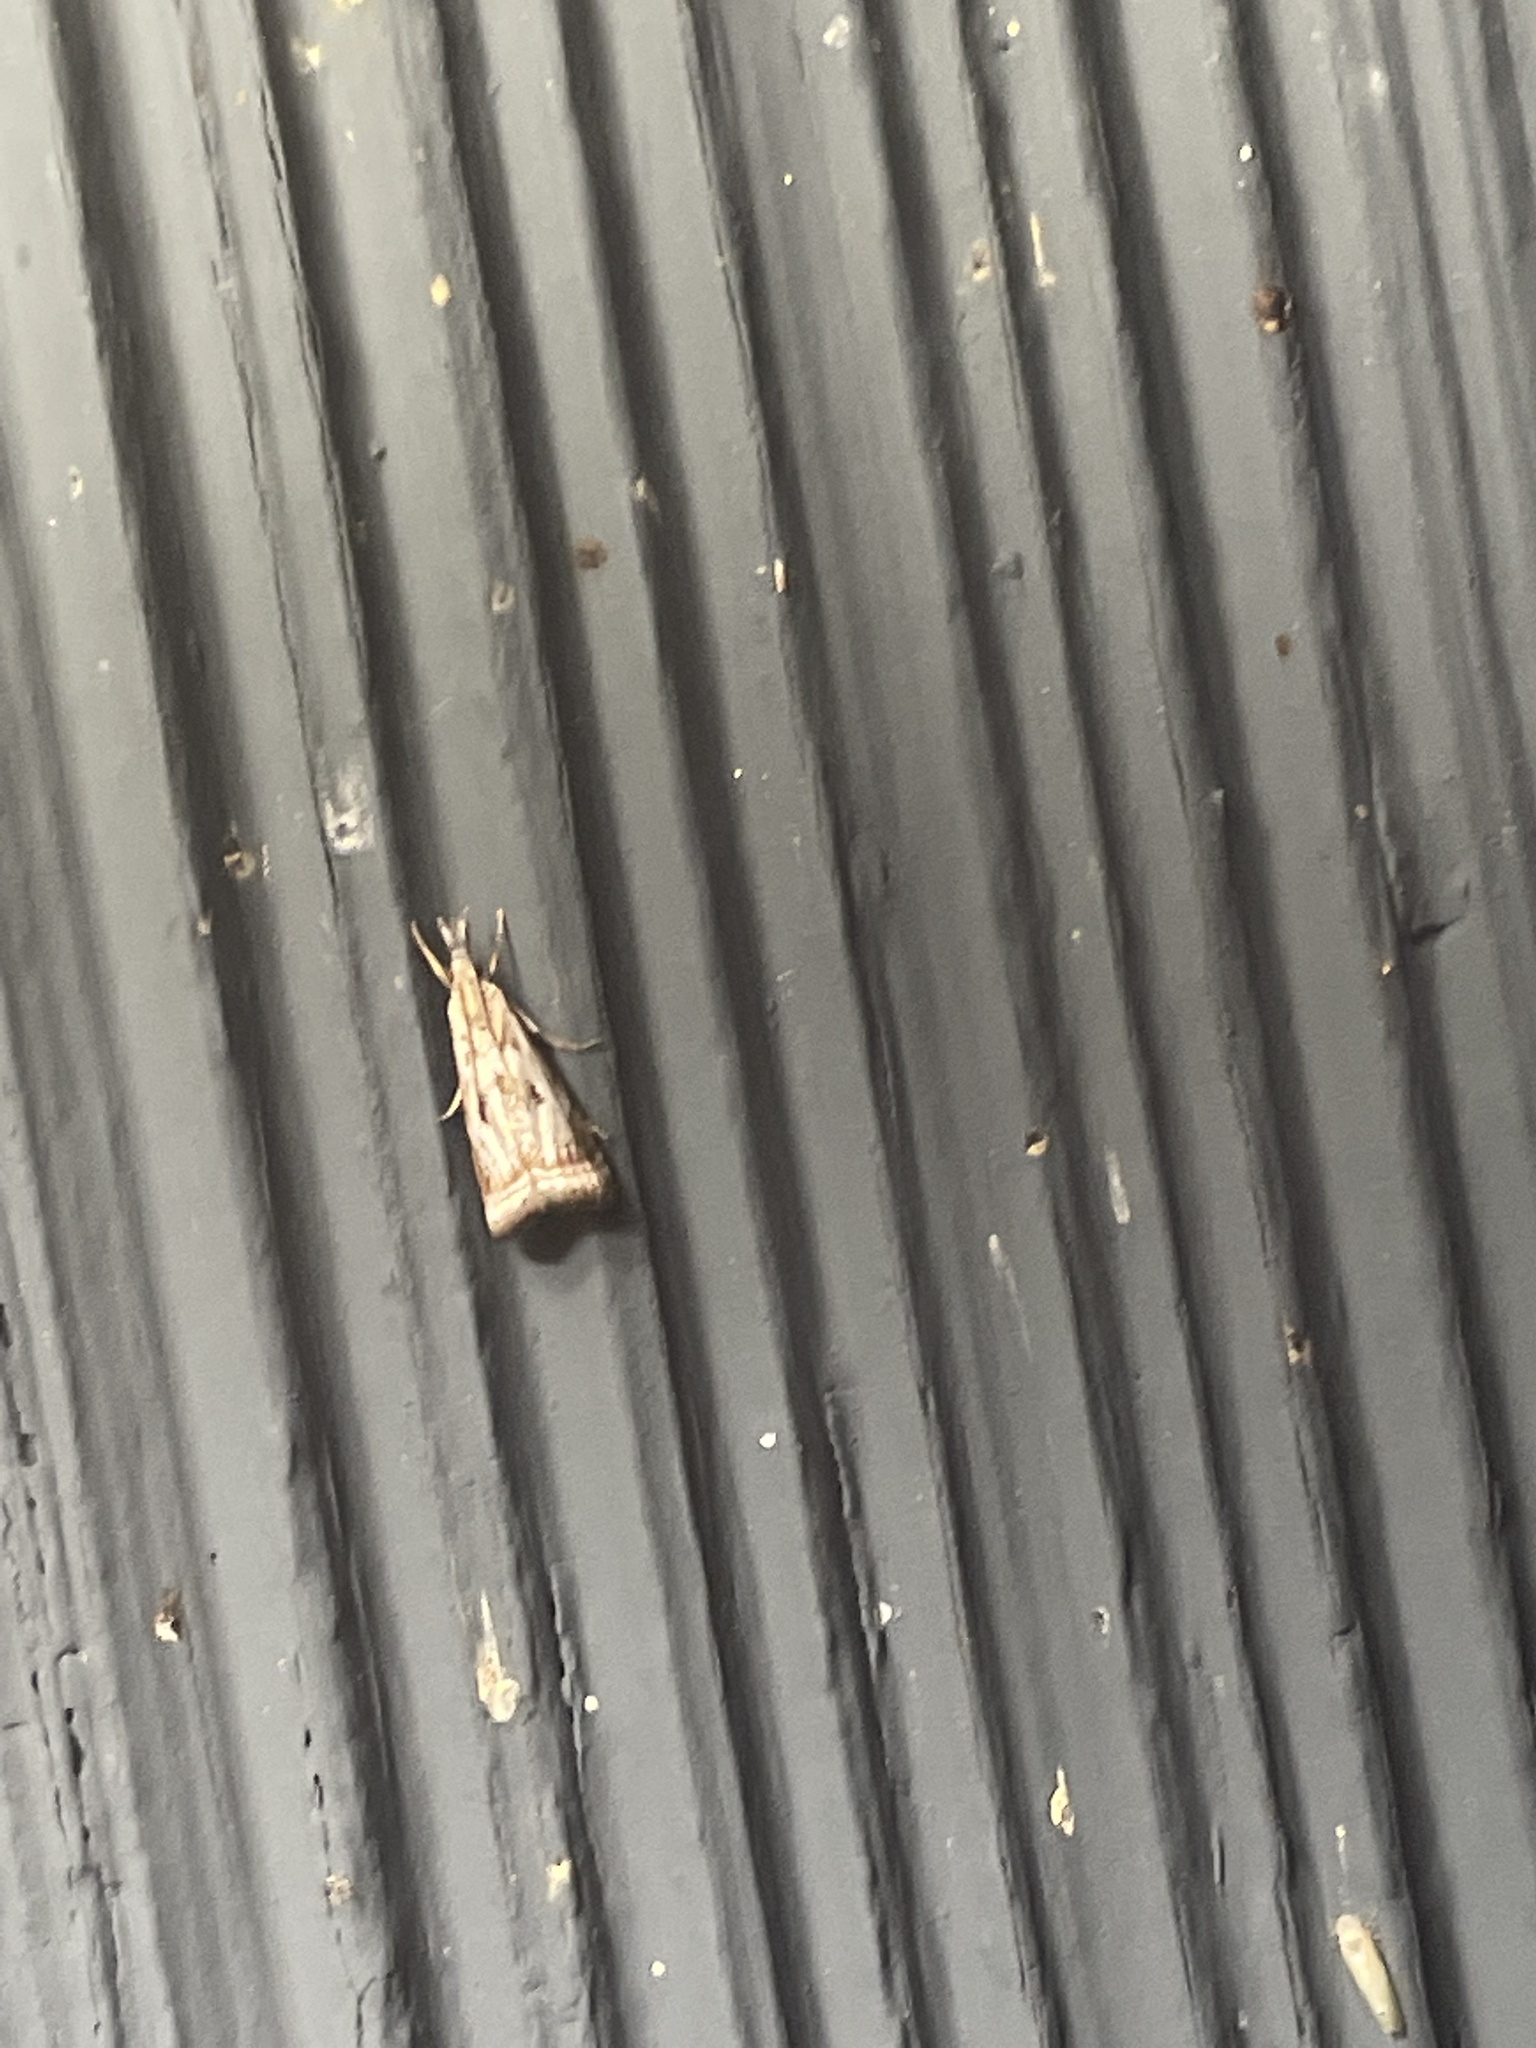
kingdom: Animalia
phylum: Arthropoda
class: Insecta
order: Lepidoptera
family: Crambidae
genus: Microcrambus
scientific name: Microcrambus elegans
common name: Elegant grass-veneer
